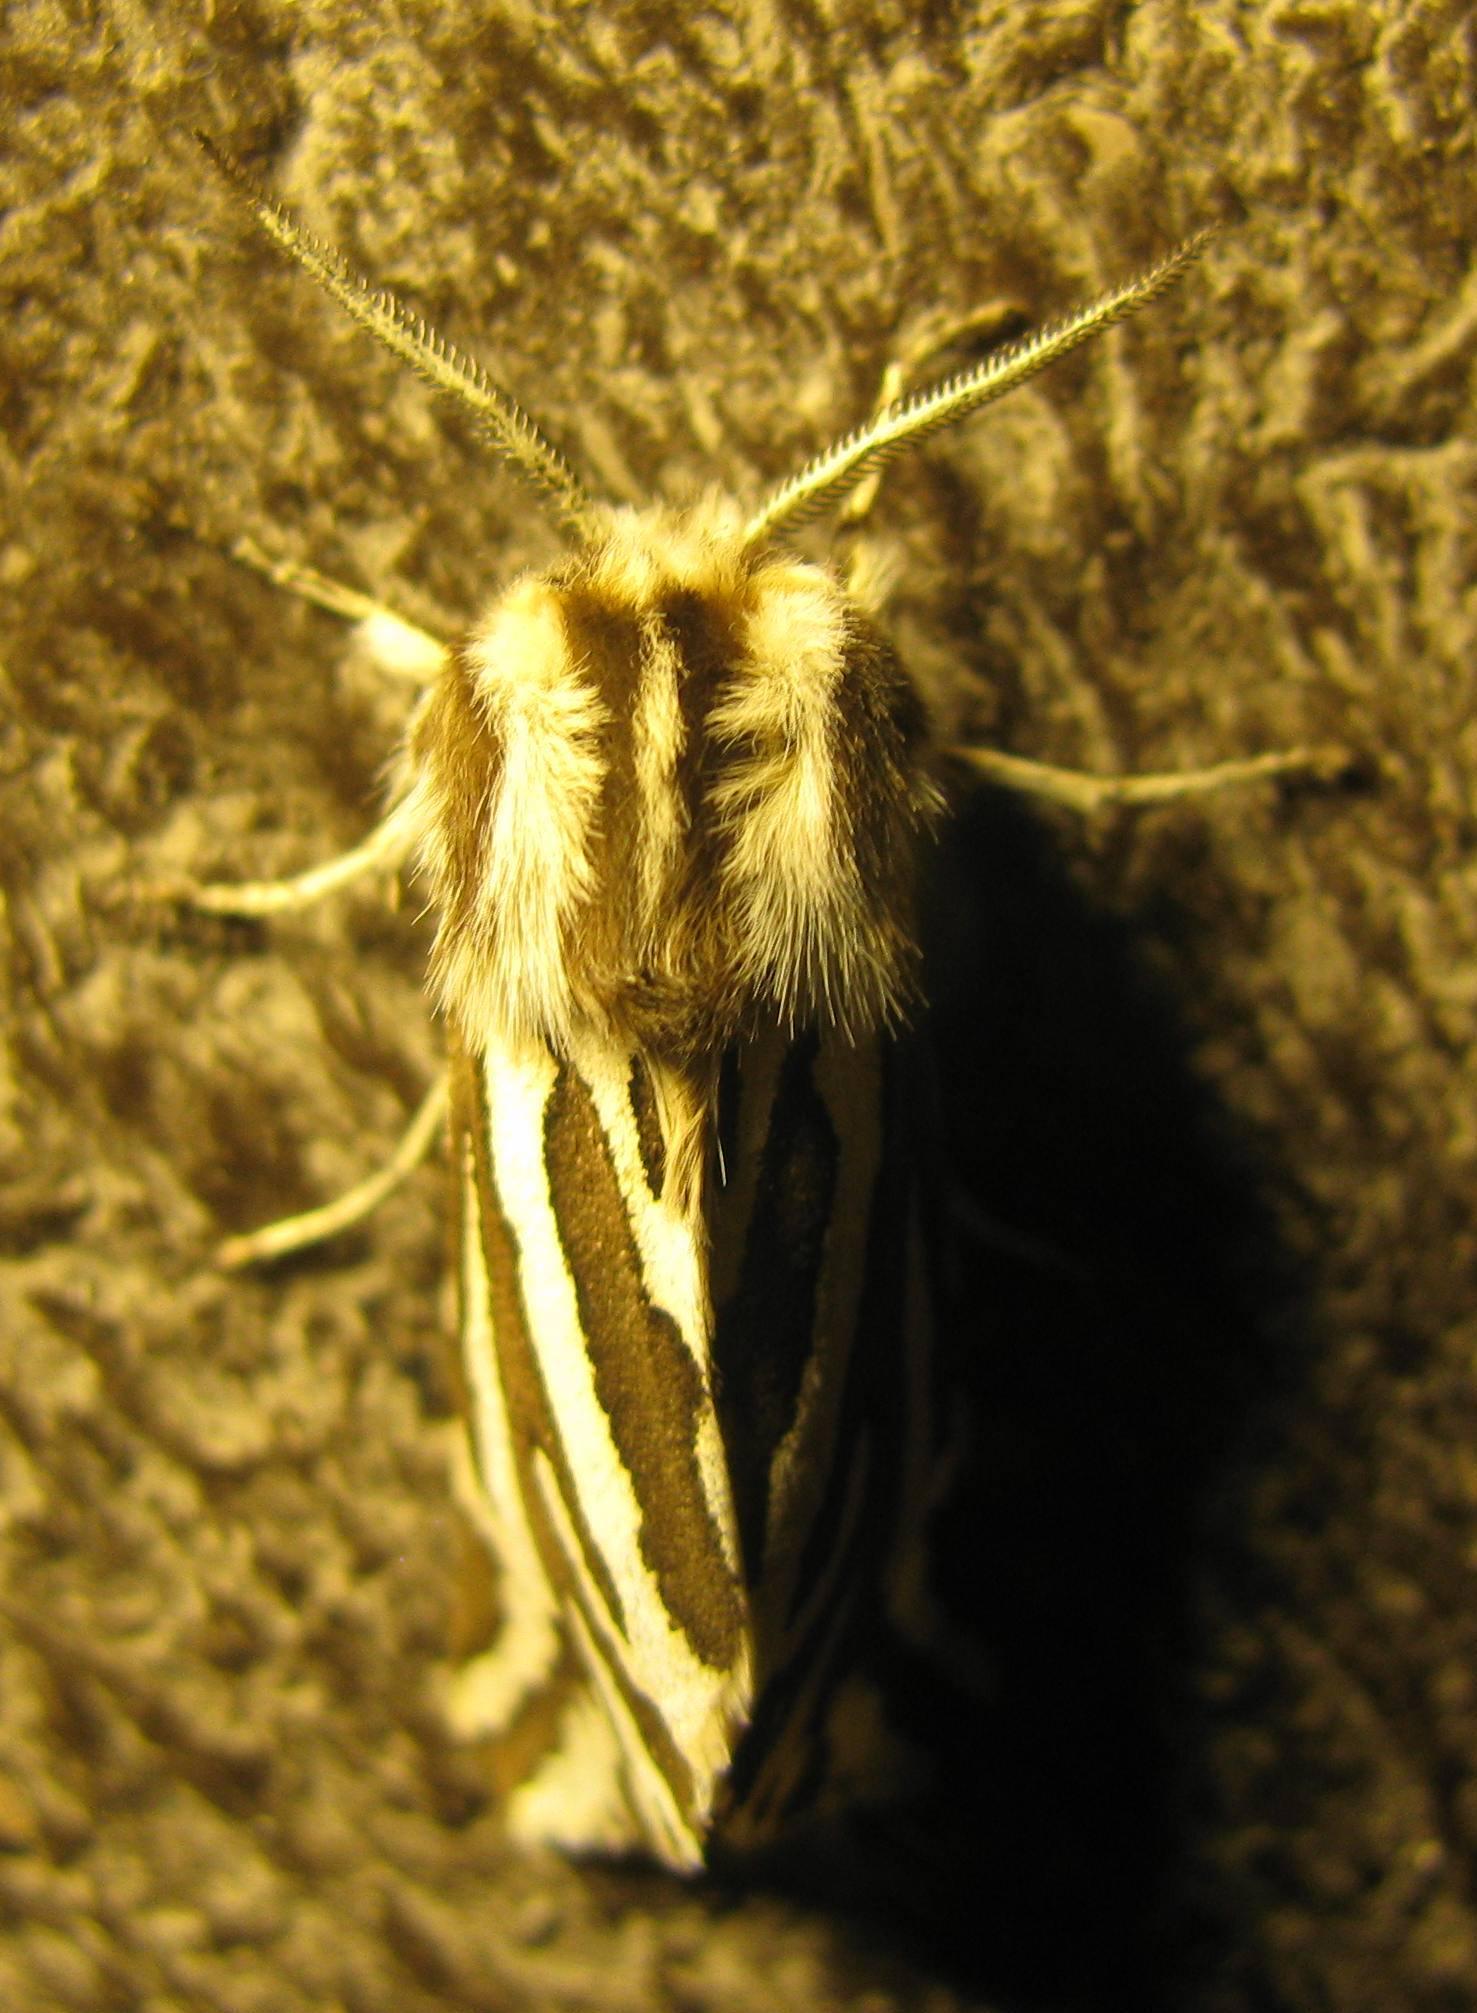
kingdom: Animalia
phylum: Arthropoda
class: Insecta
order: Lepidoptera
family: Erebidae
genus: Paralacydes
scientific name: Paralacydes vocula
